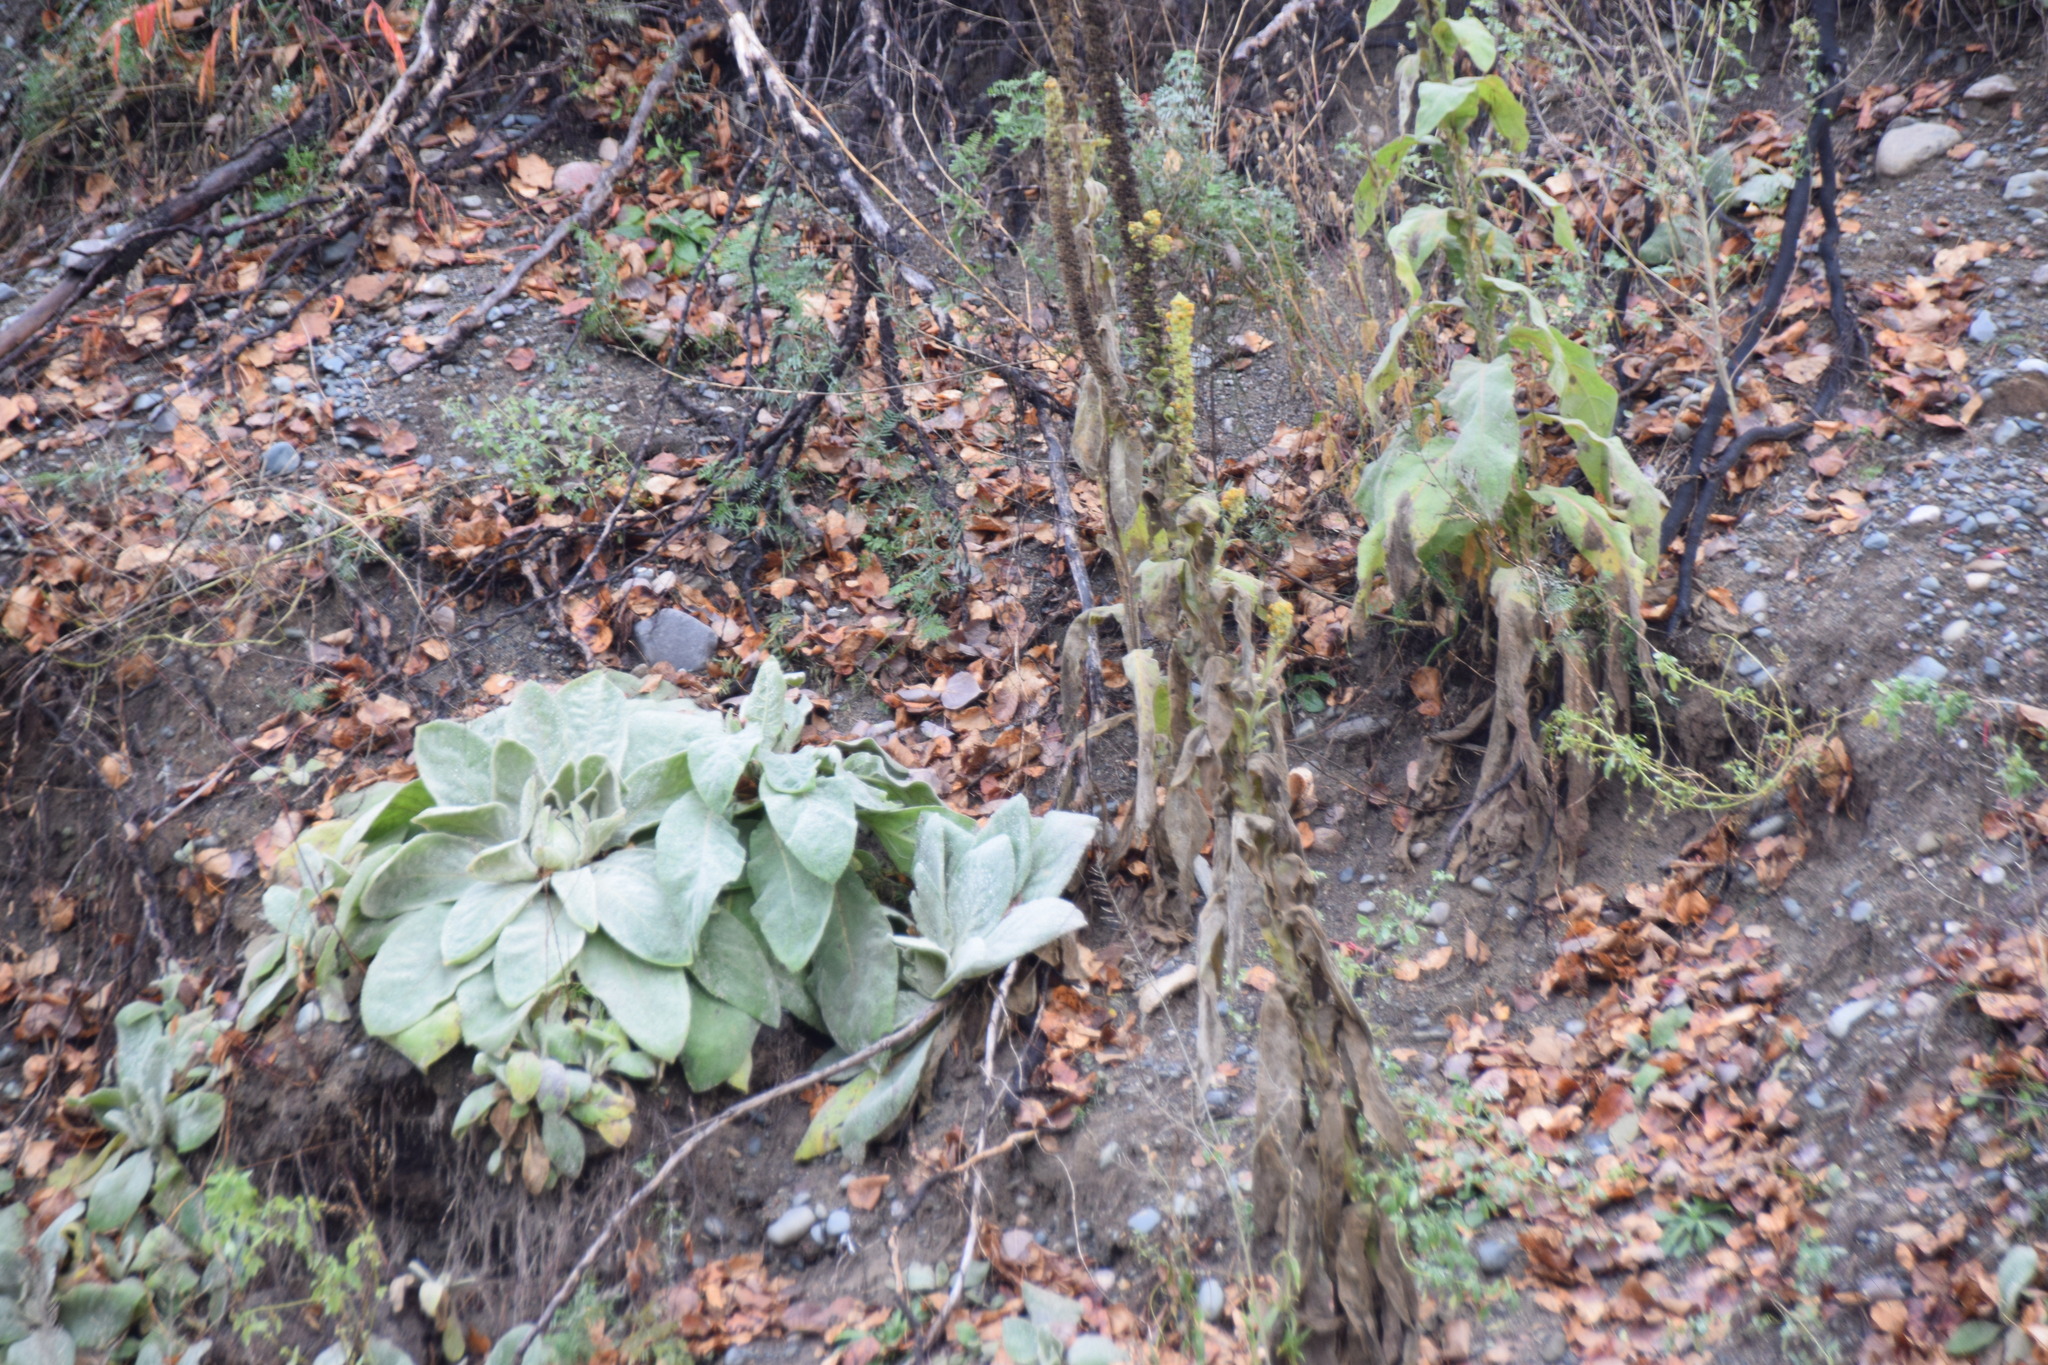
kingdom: Plantae
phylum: Tracheophyta
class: Magnoliopsida
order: Lamiales
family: Scrophulariaceae
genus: Verbascum
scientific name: Verbascum thapsus
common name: Common mullein
